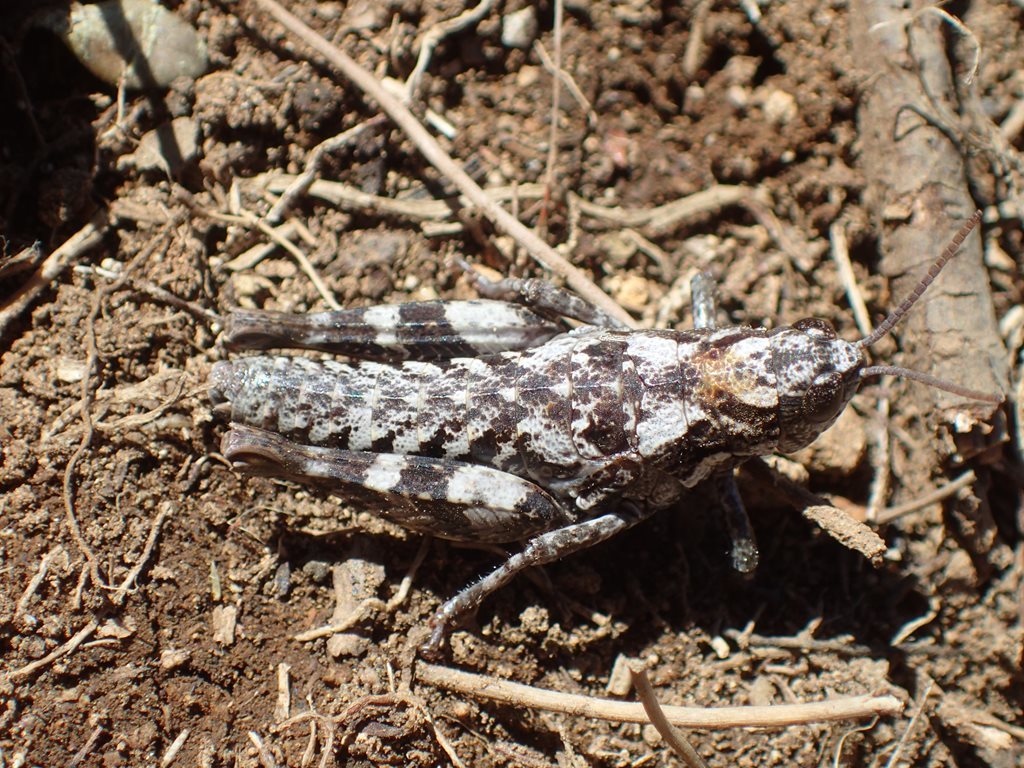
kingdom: Animalia
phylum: Arthropoda
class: Insecta
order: Orthoptera
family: Acrididae
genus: Tasmaniacris
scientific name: Tasmaniacris tasmaniensis
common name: Tasmanian grasshopper
